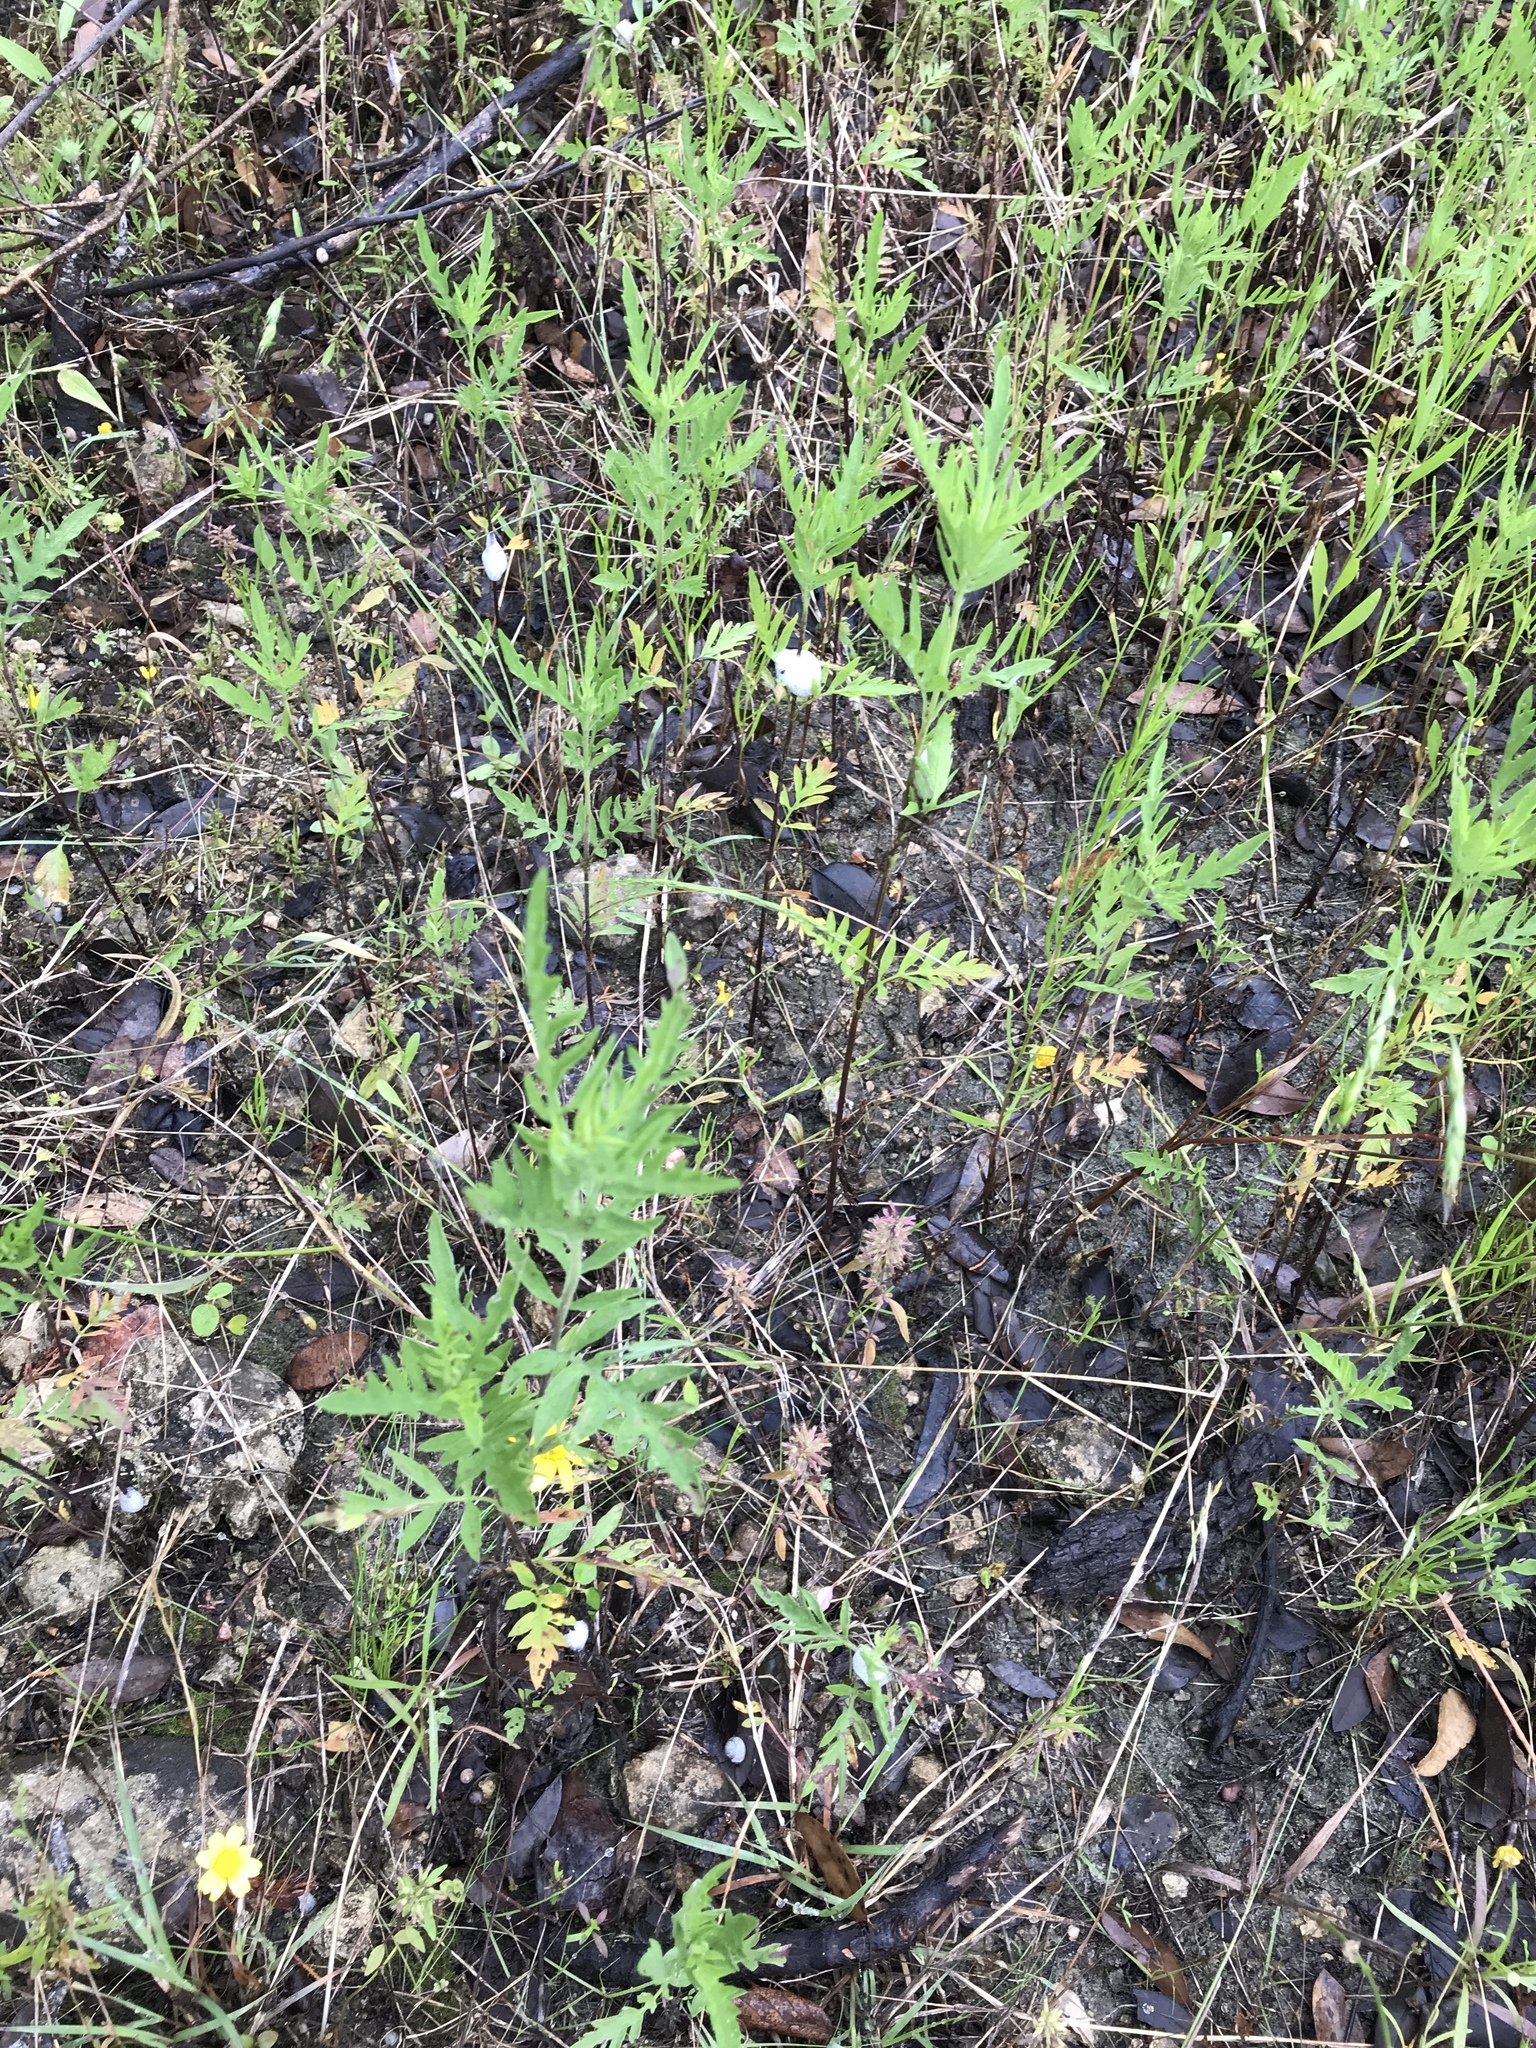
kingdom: Plantae
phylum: Tracheophyta
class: Magnoliopsida
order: Asterales
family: Asteraceae
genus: Ambrosia
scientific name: Ambrosia artemisiifolia
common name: Annual ragweed
